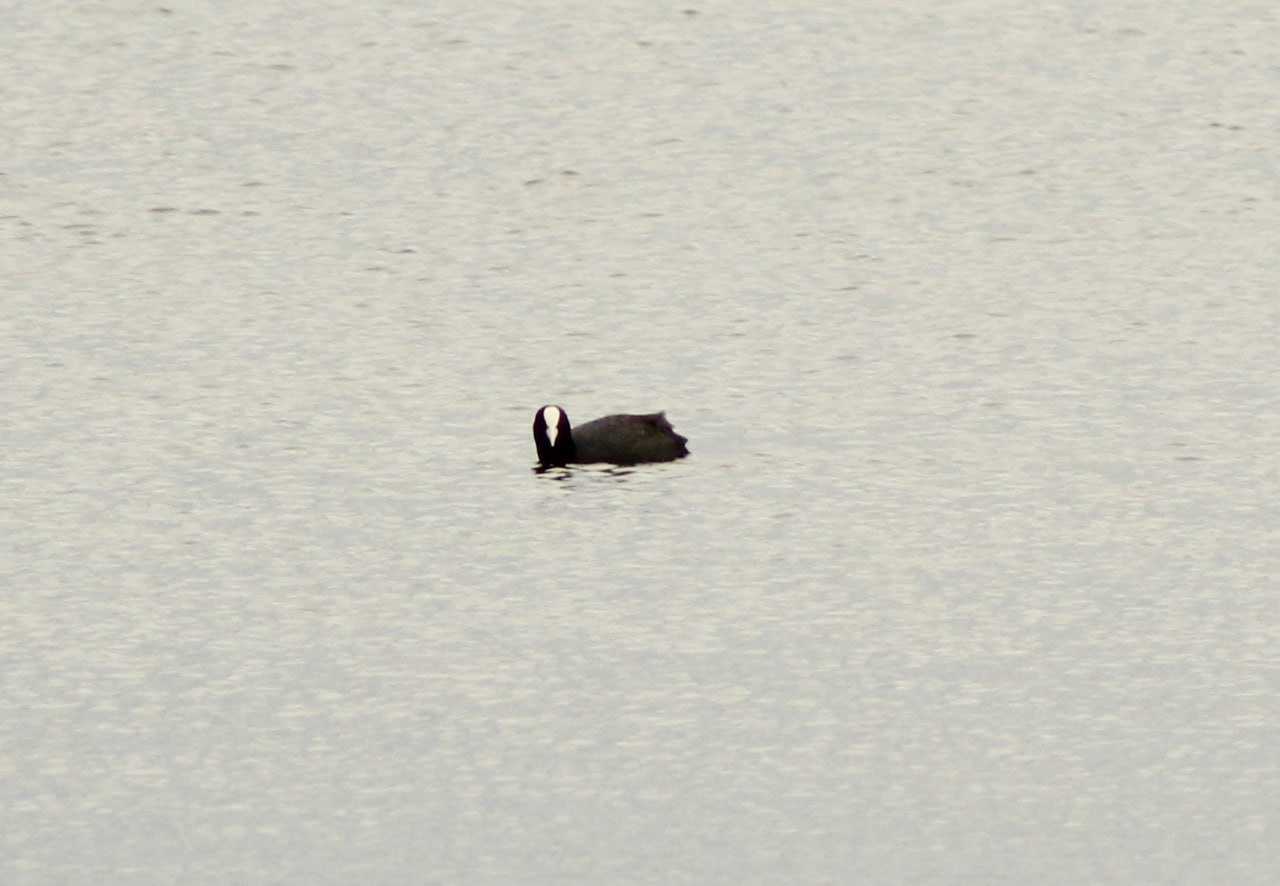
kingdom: Animalia
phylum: Chordata
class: Aves
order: Gruiformes
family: Rallidae
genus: Fulica
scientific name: Fulica atra
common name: Eurasian coot
